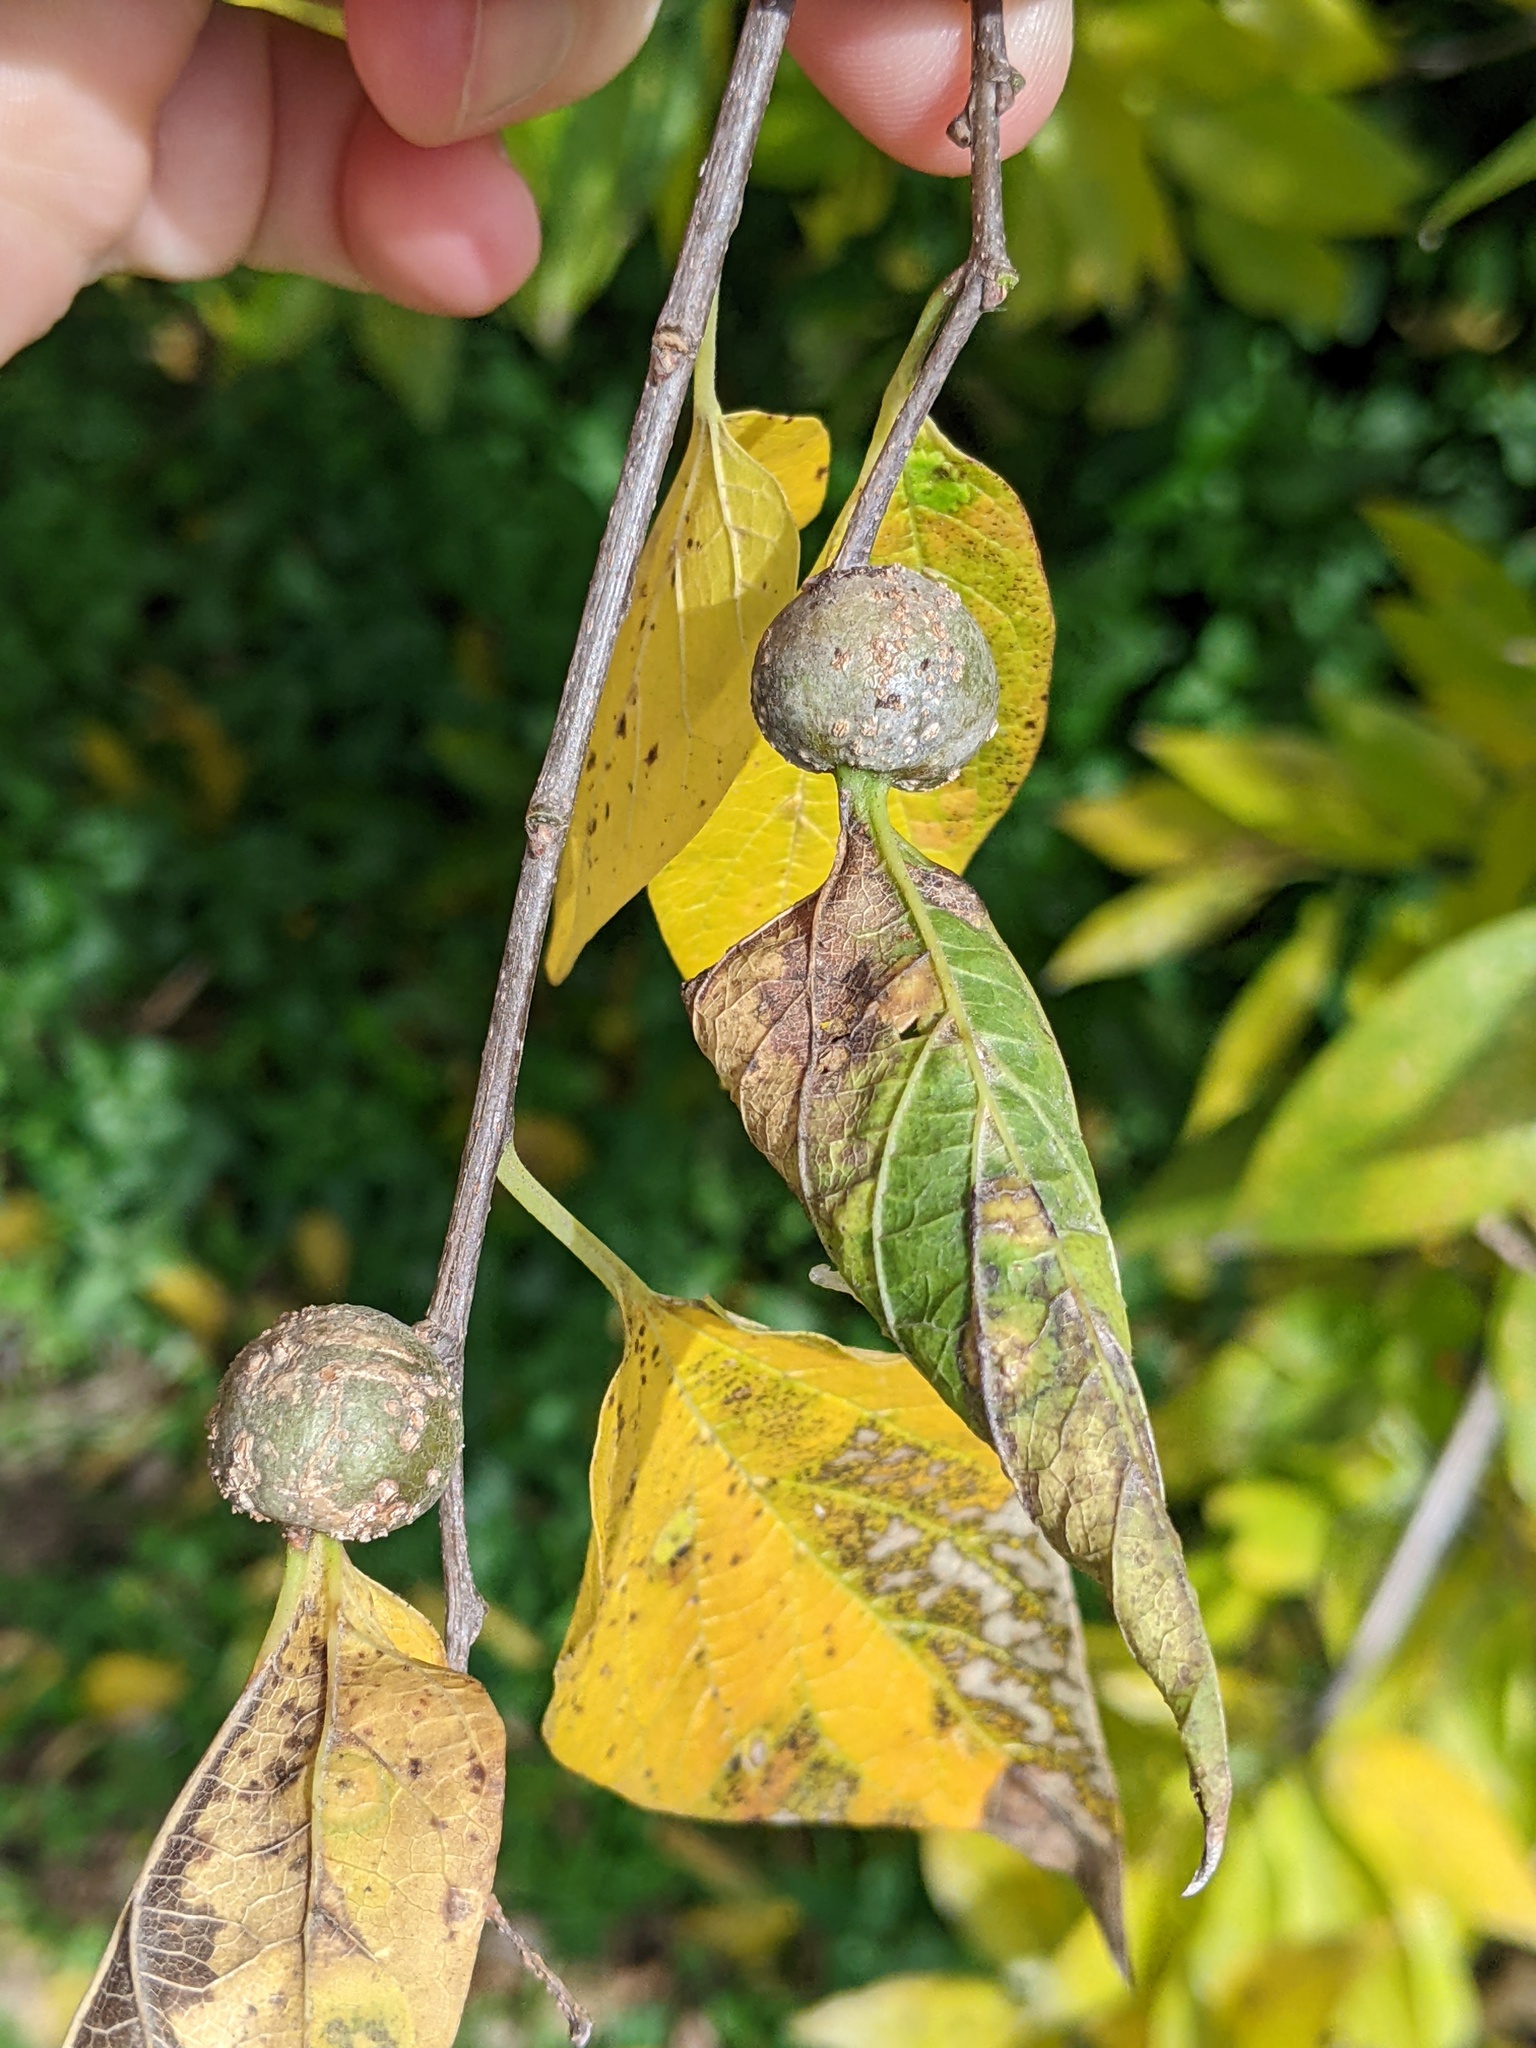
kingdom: Animalia
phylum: Arthropoda
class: Insecta
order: Hemiptera
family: Aphalaridae
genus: Pachypsylla
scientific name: Pachypsylla venusta
